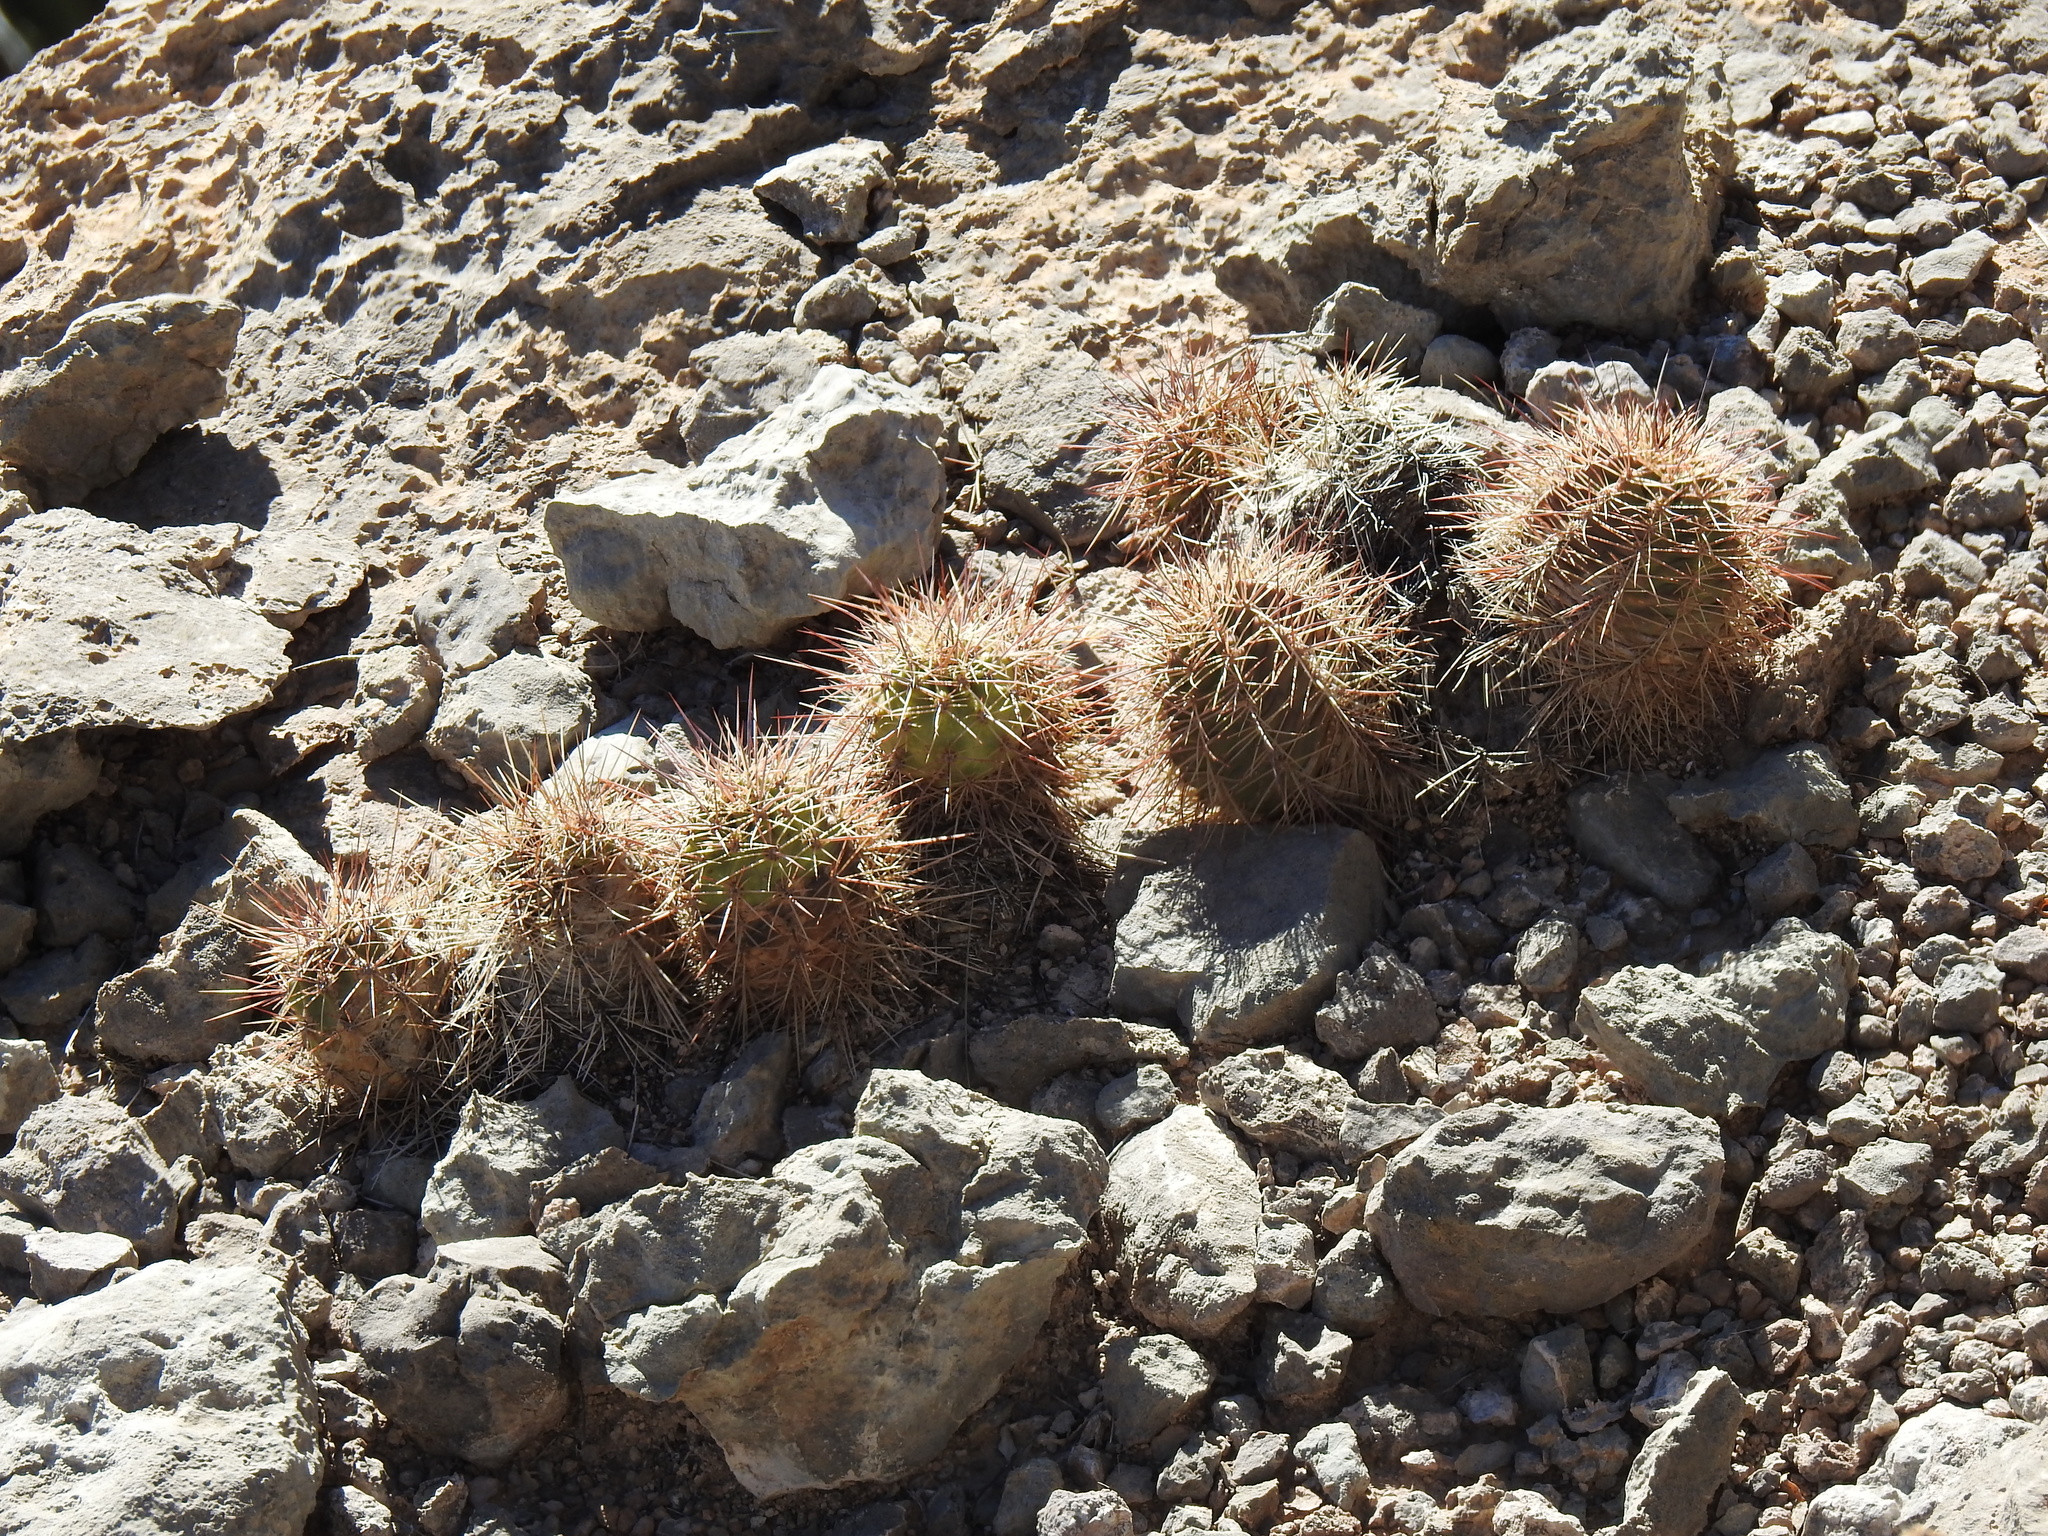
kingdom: Plantae
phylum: Tracheophyta
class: Magnoliopsida
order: Caryophyllales
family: Cactaceae
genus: Echinocereus
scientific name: Echinocereus coccineus
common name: Scarlet hedgehog cactus
